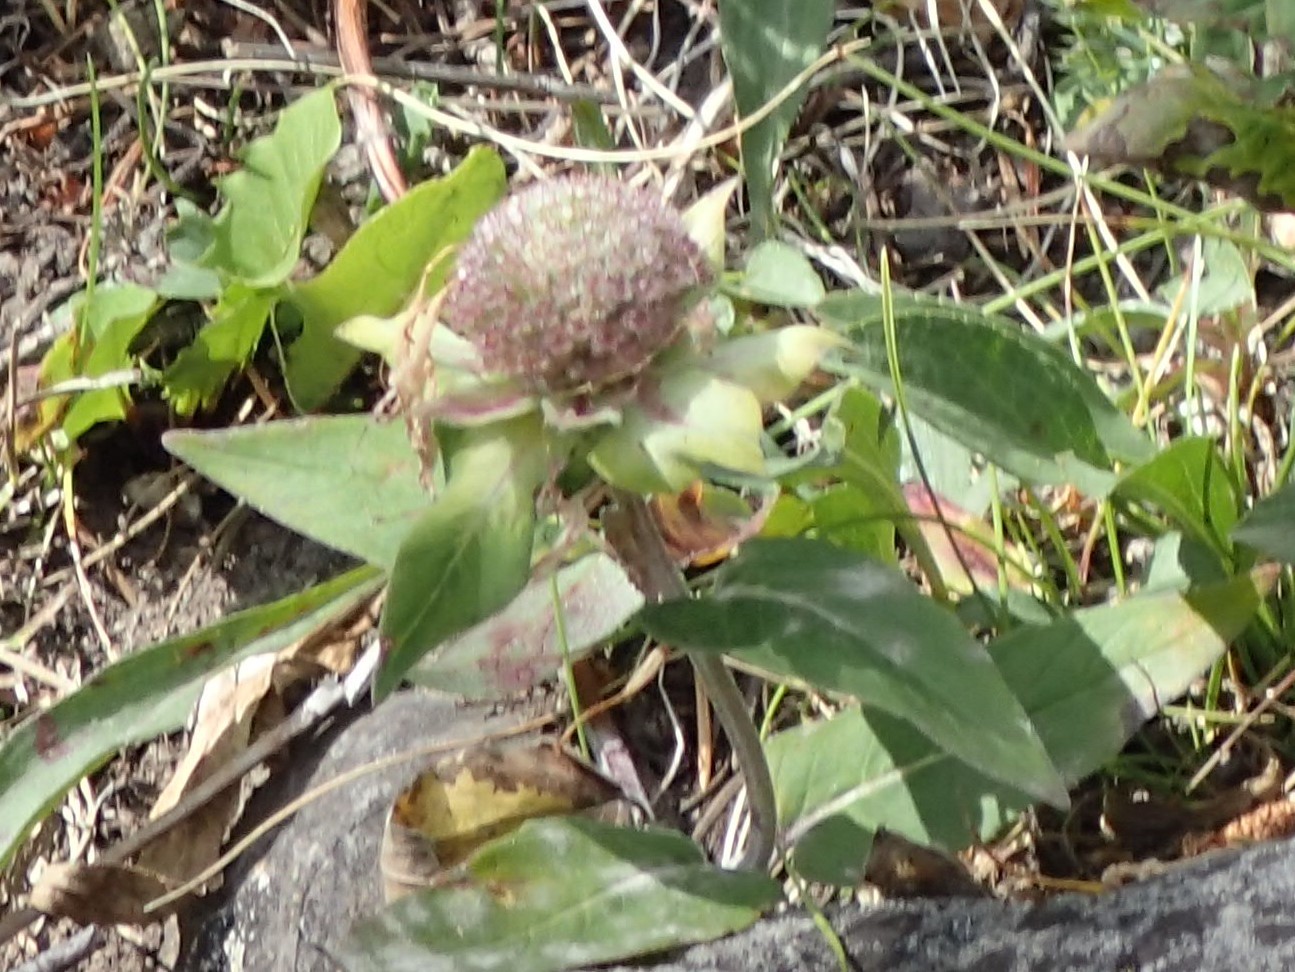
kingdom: Plantae
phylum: Tracheophyta
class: Magnoliopsida
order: Lamiales
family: Lamiaceae
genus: Monarda
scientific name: Monarda fistulosa
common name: Purple beebalm
